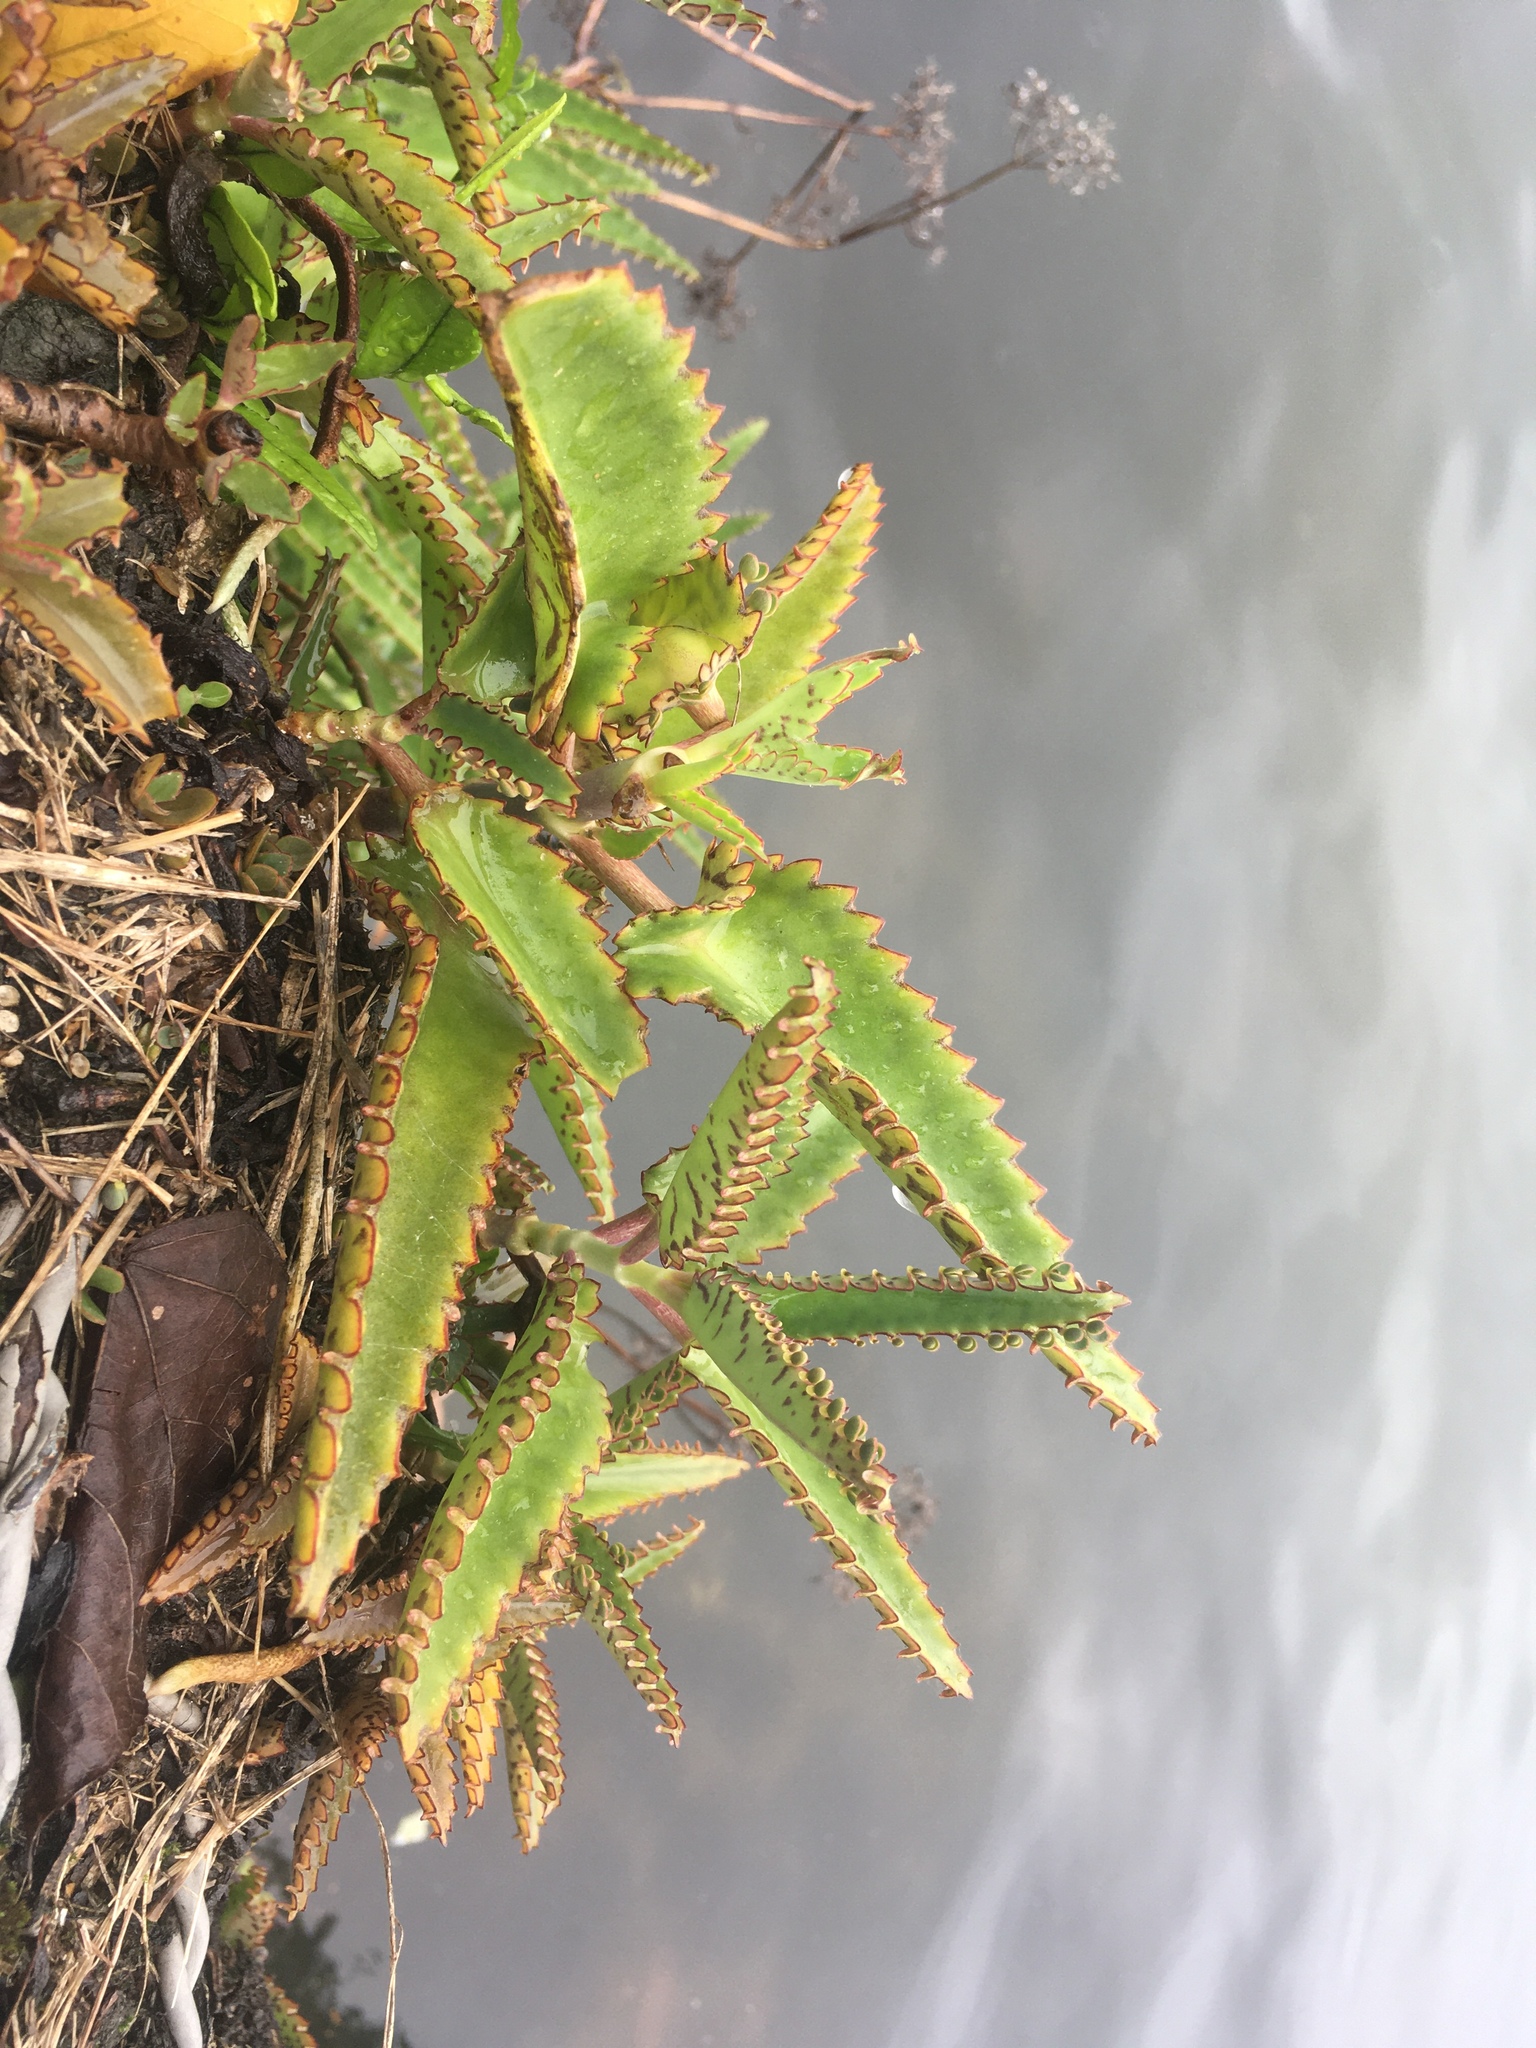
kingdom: Plantae
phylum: Tracheophyta
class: Magnoliopsida
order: Saxifragales
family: Crassulaceae
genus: Kalanchoe
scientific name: Kalanchoe daigremontiana
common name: Devil's backbone
